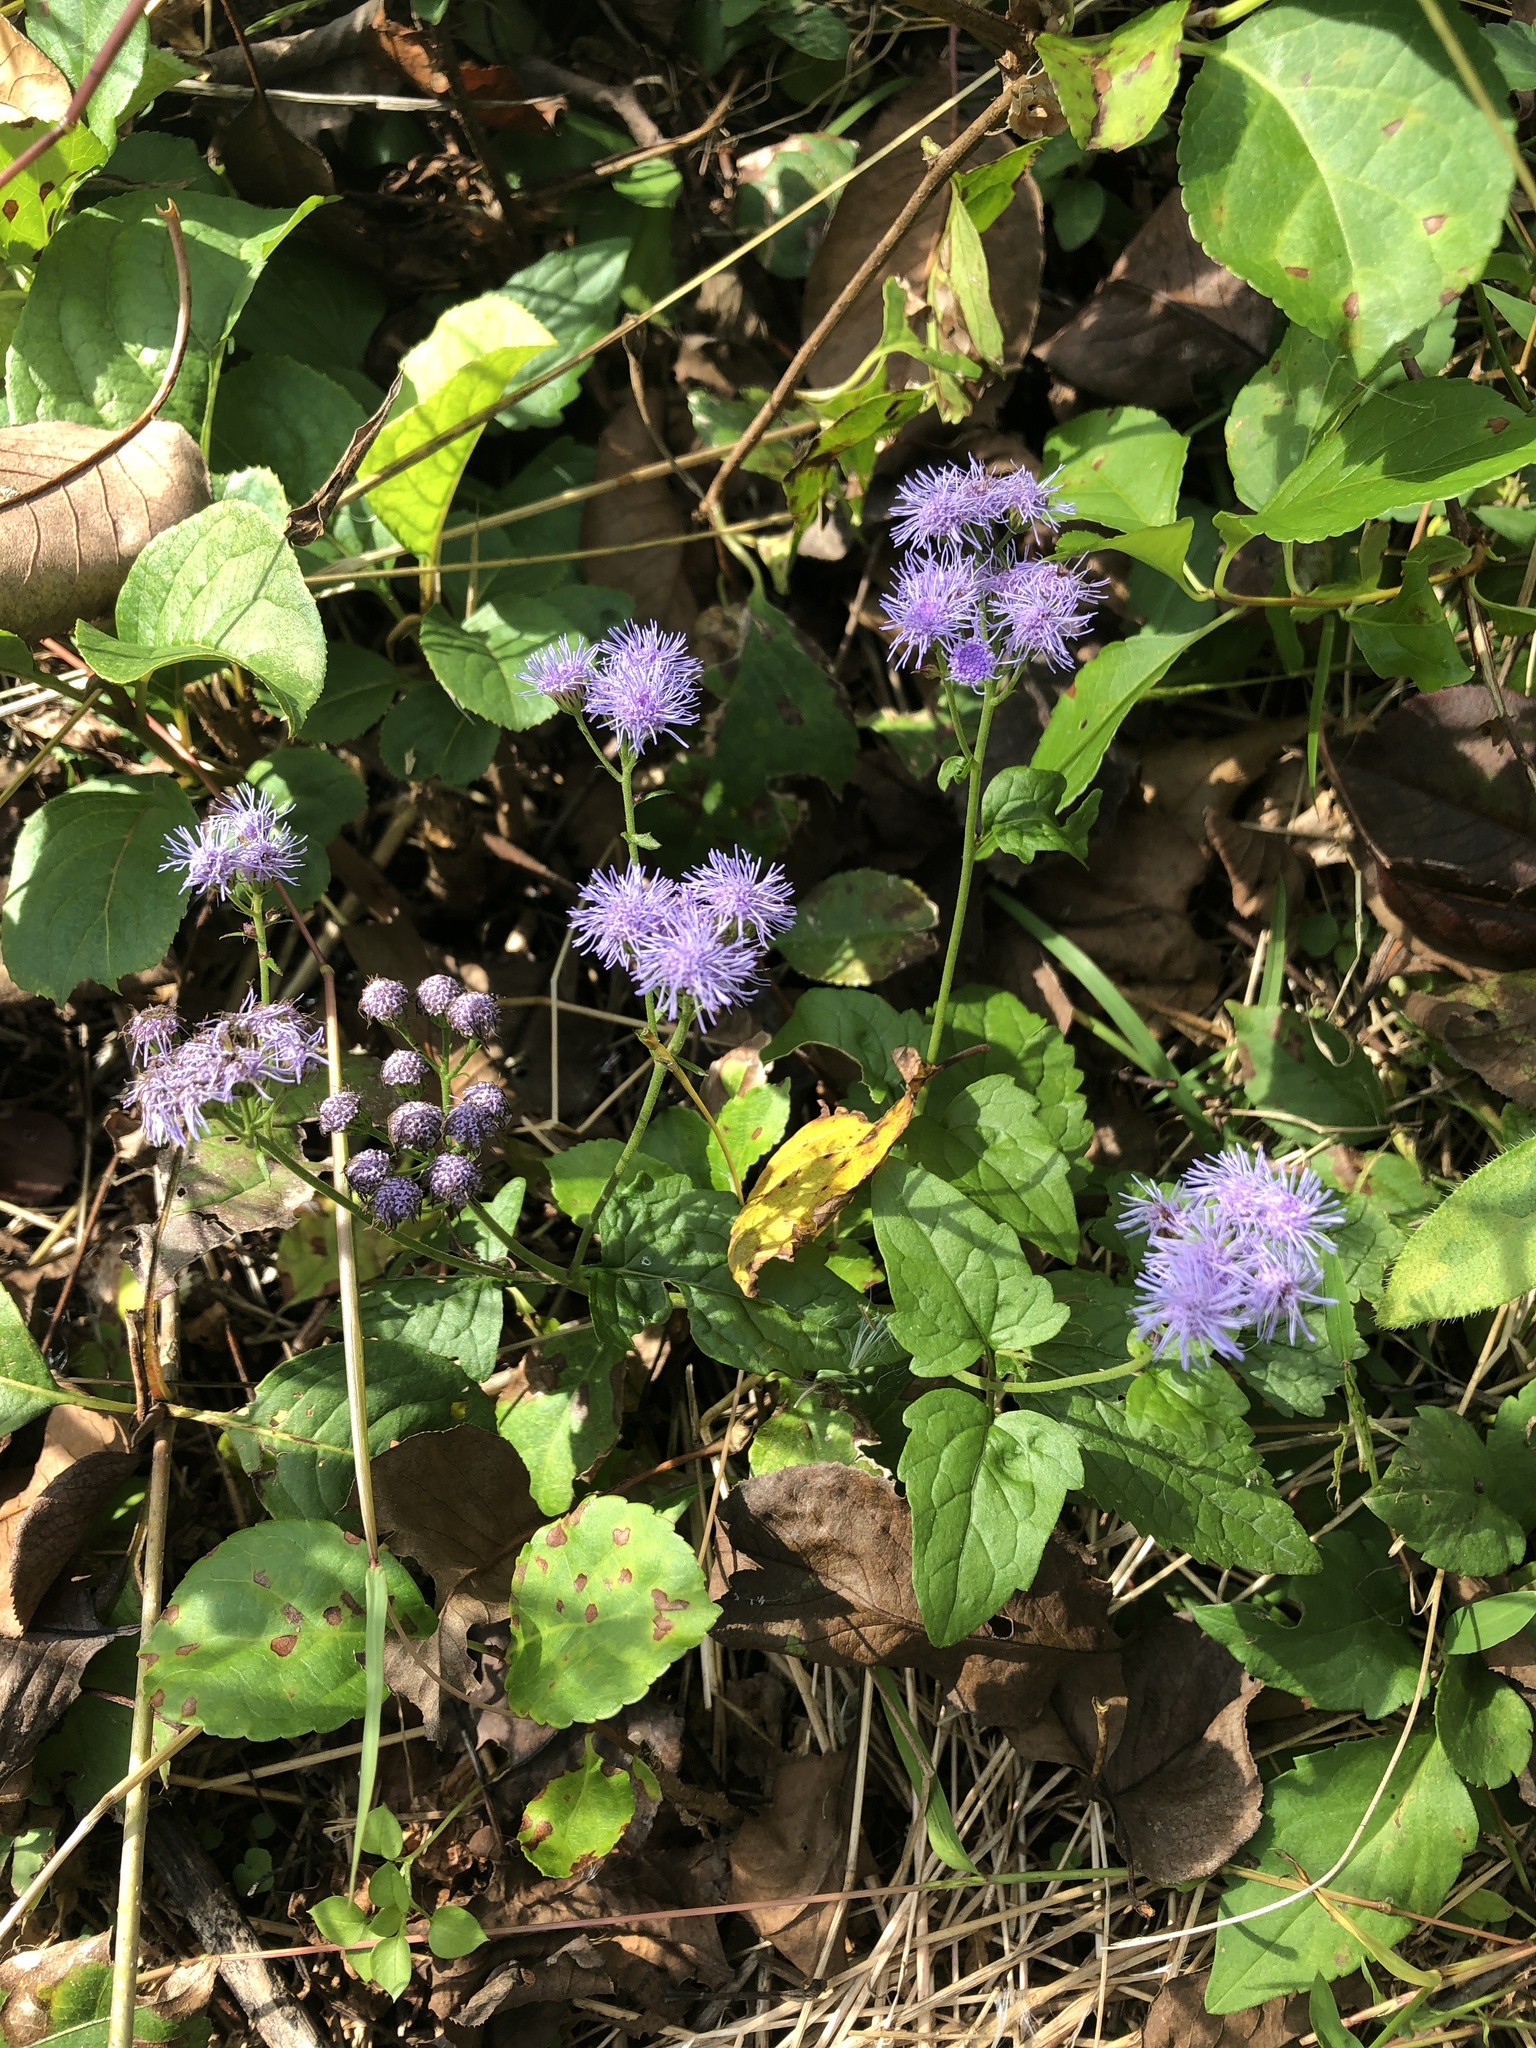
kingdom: Plantae
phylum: Tracheophyta
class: Magnoliopsida
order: Asterales
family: Asteraceae
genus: Conoclinium
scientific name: Conoclinium coelestinum
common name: Blue mistflower
